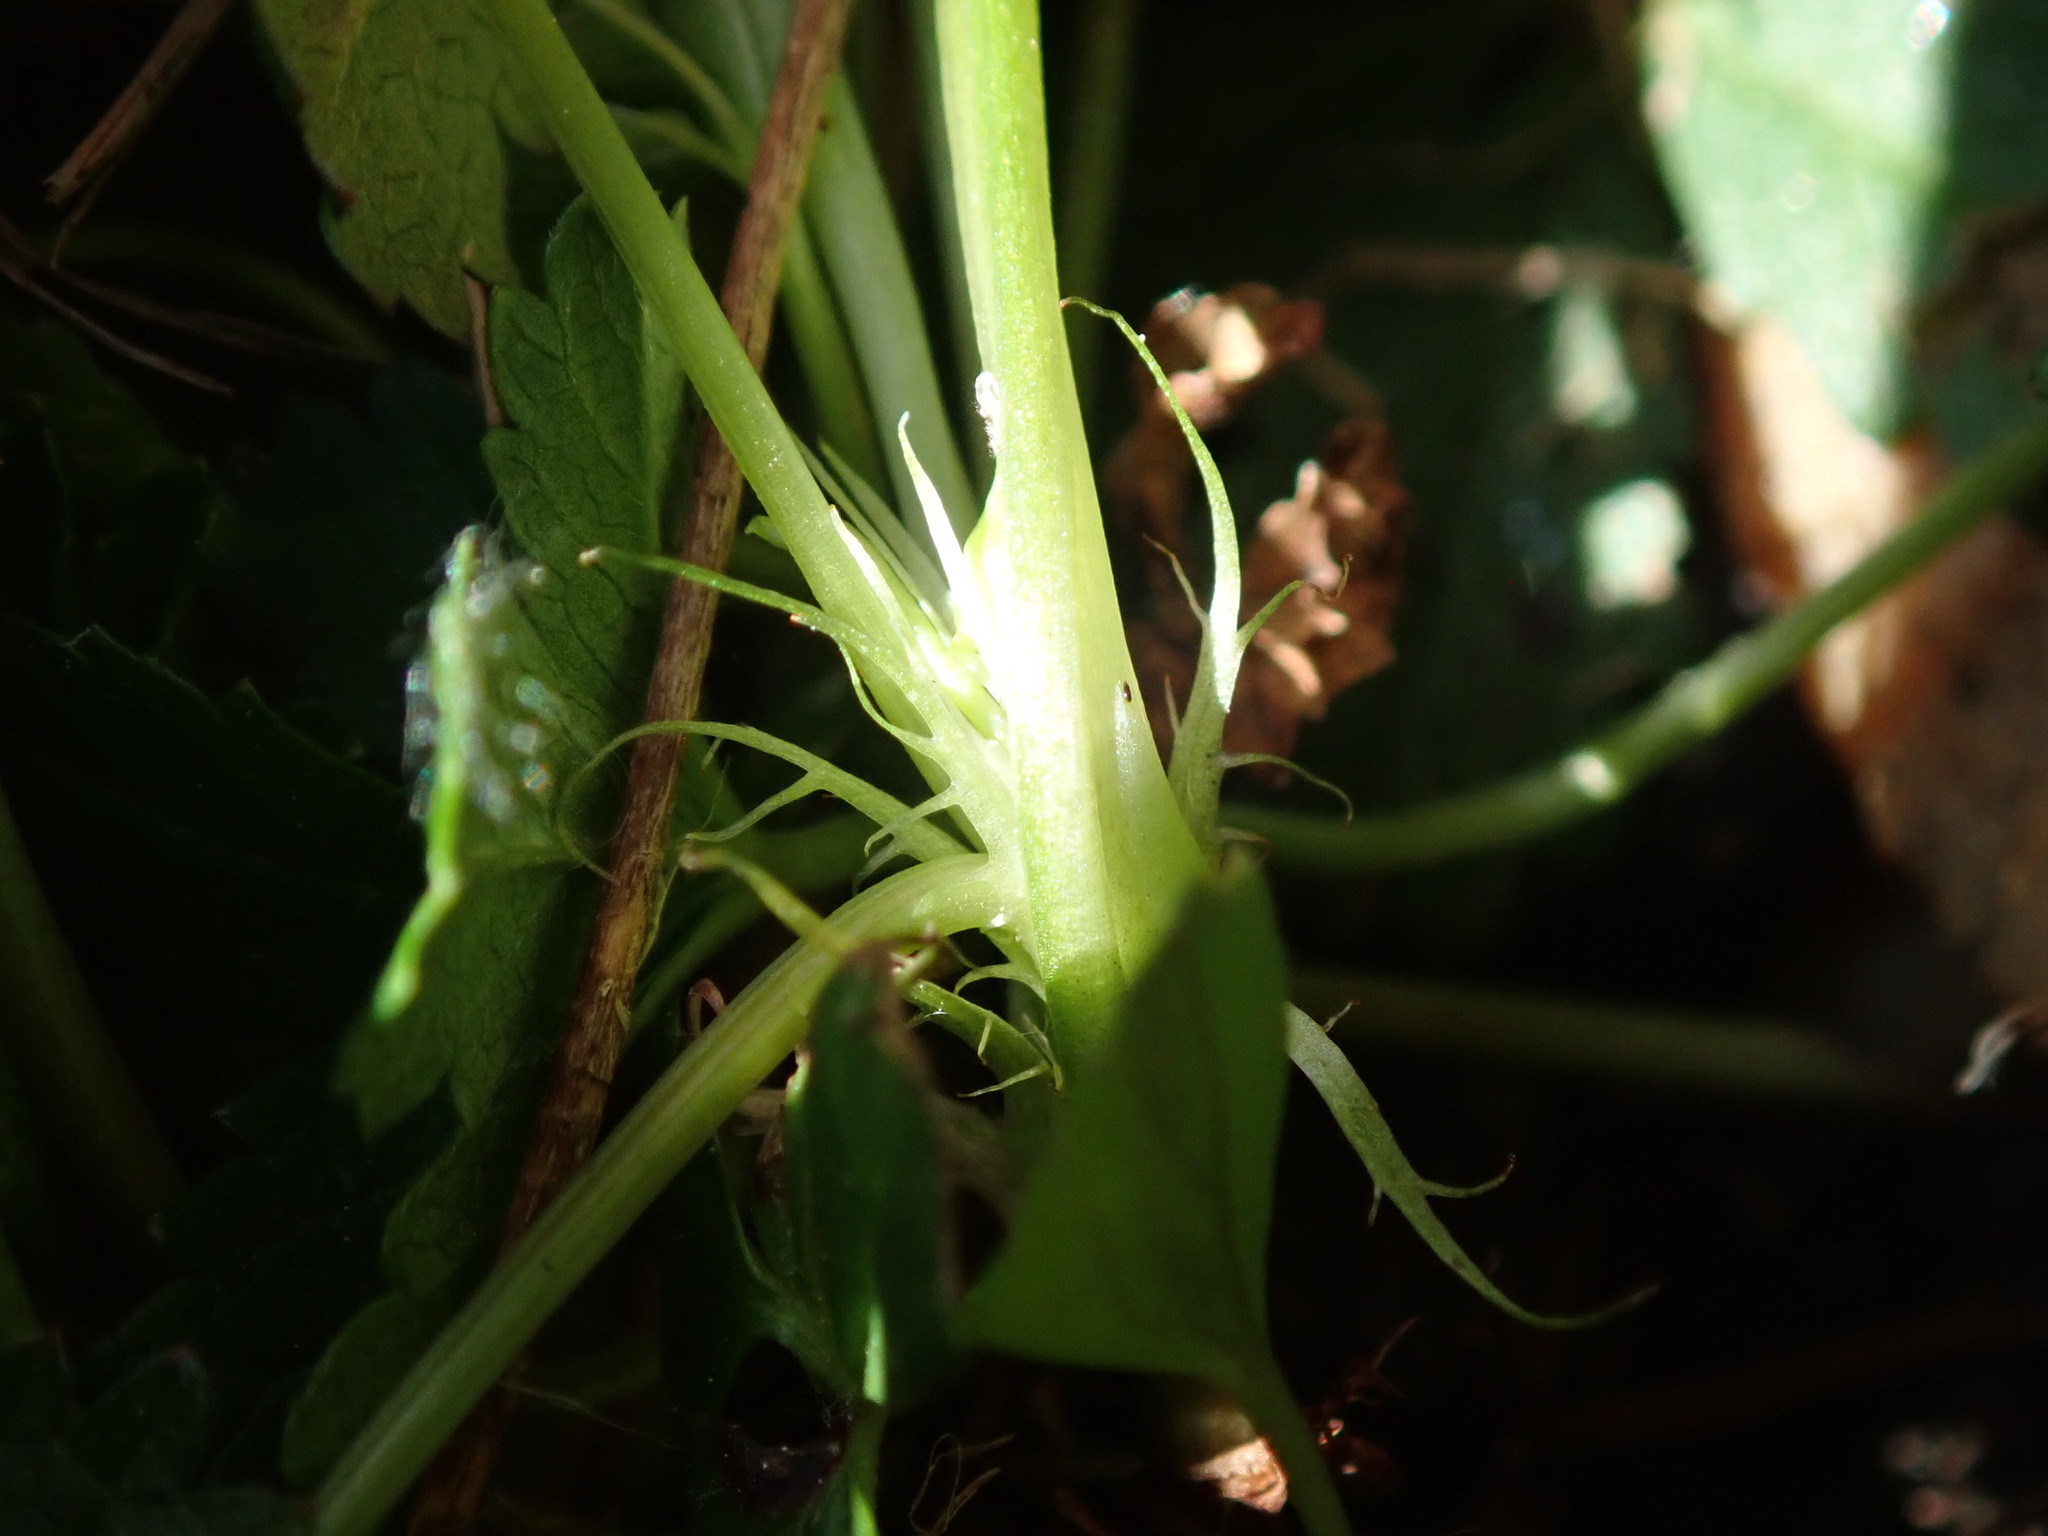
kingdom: Plantae
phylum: Tracheophyta
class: Magnoliopsida
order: Malpighiales
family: Violaceae
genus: Viola
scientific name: Viola reichenbachiana
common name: Early dog-violet
